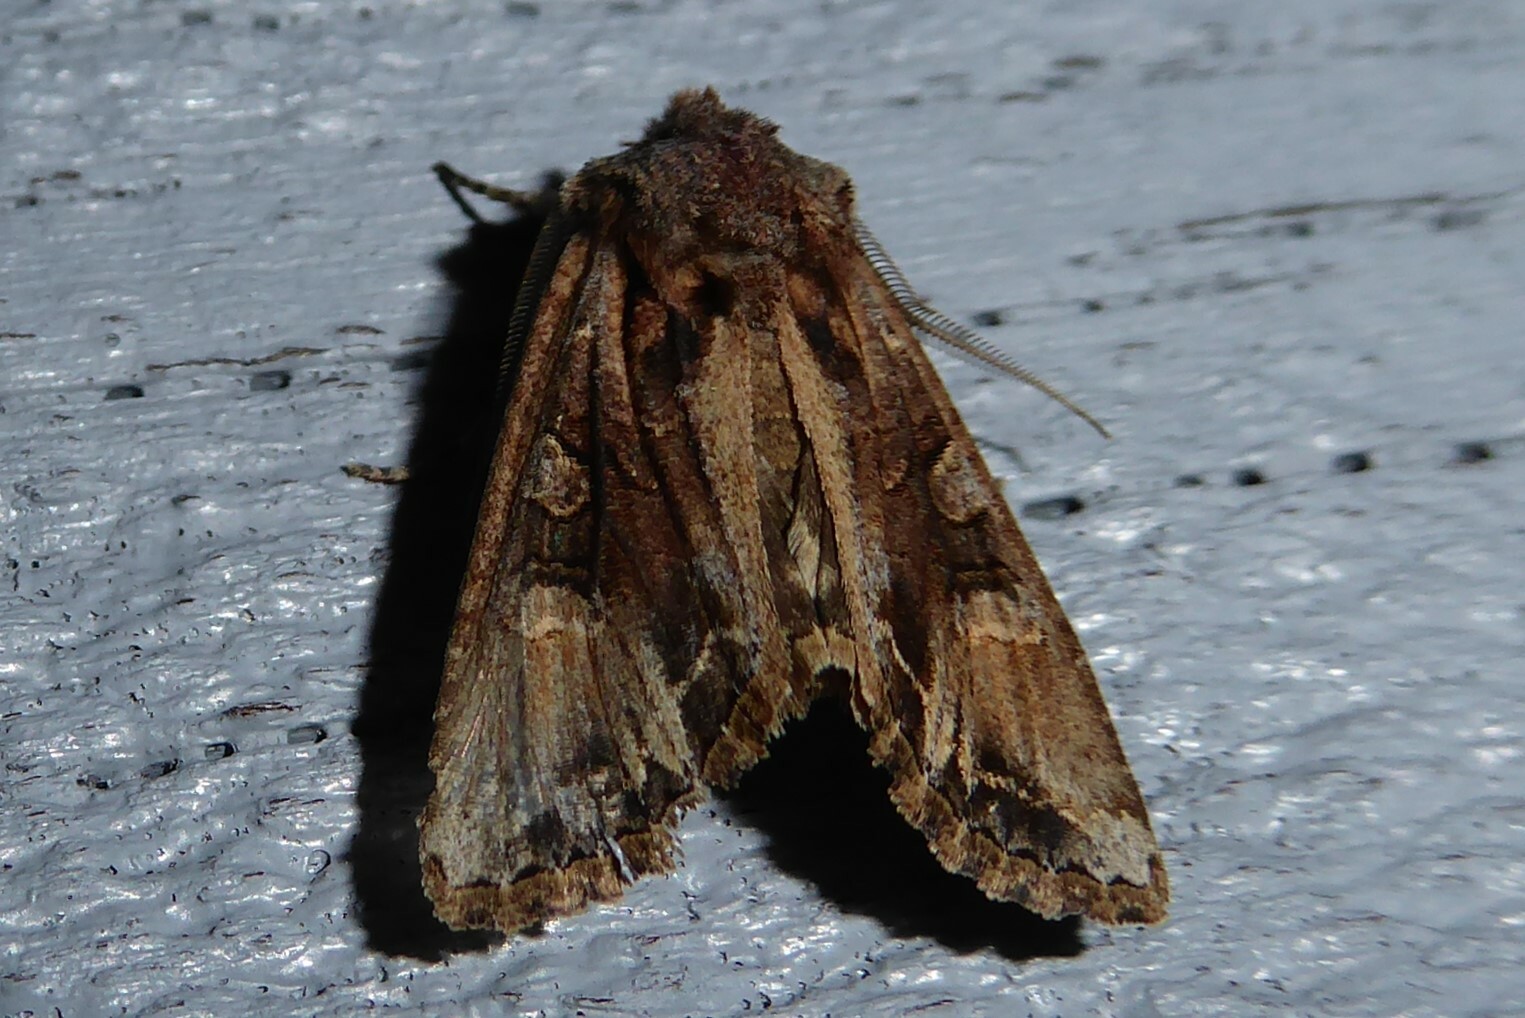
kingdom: Animalia
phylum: Arthropoda
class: Insecta
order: Lepidoptera
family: Noctuidae
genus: Ichneutica
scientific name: Ichneutica insignis
